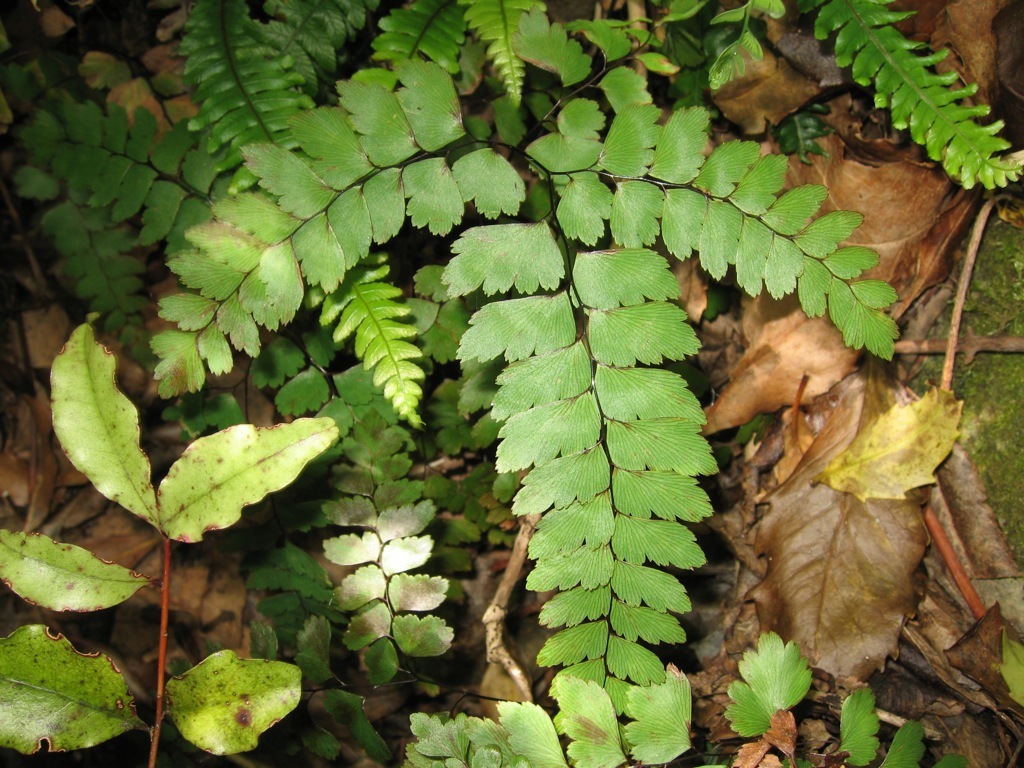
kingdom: Plantae
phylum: Tracheophyta
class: Polypodiopsida
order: Polypodiales
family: Pteridaceae
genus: Adiantum
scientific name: Adiantum cunninghamii
